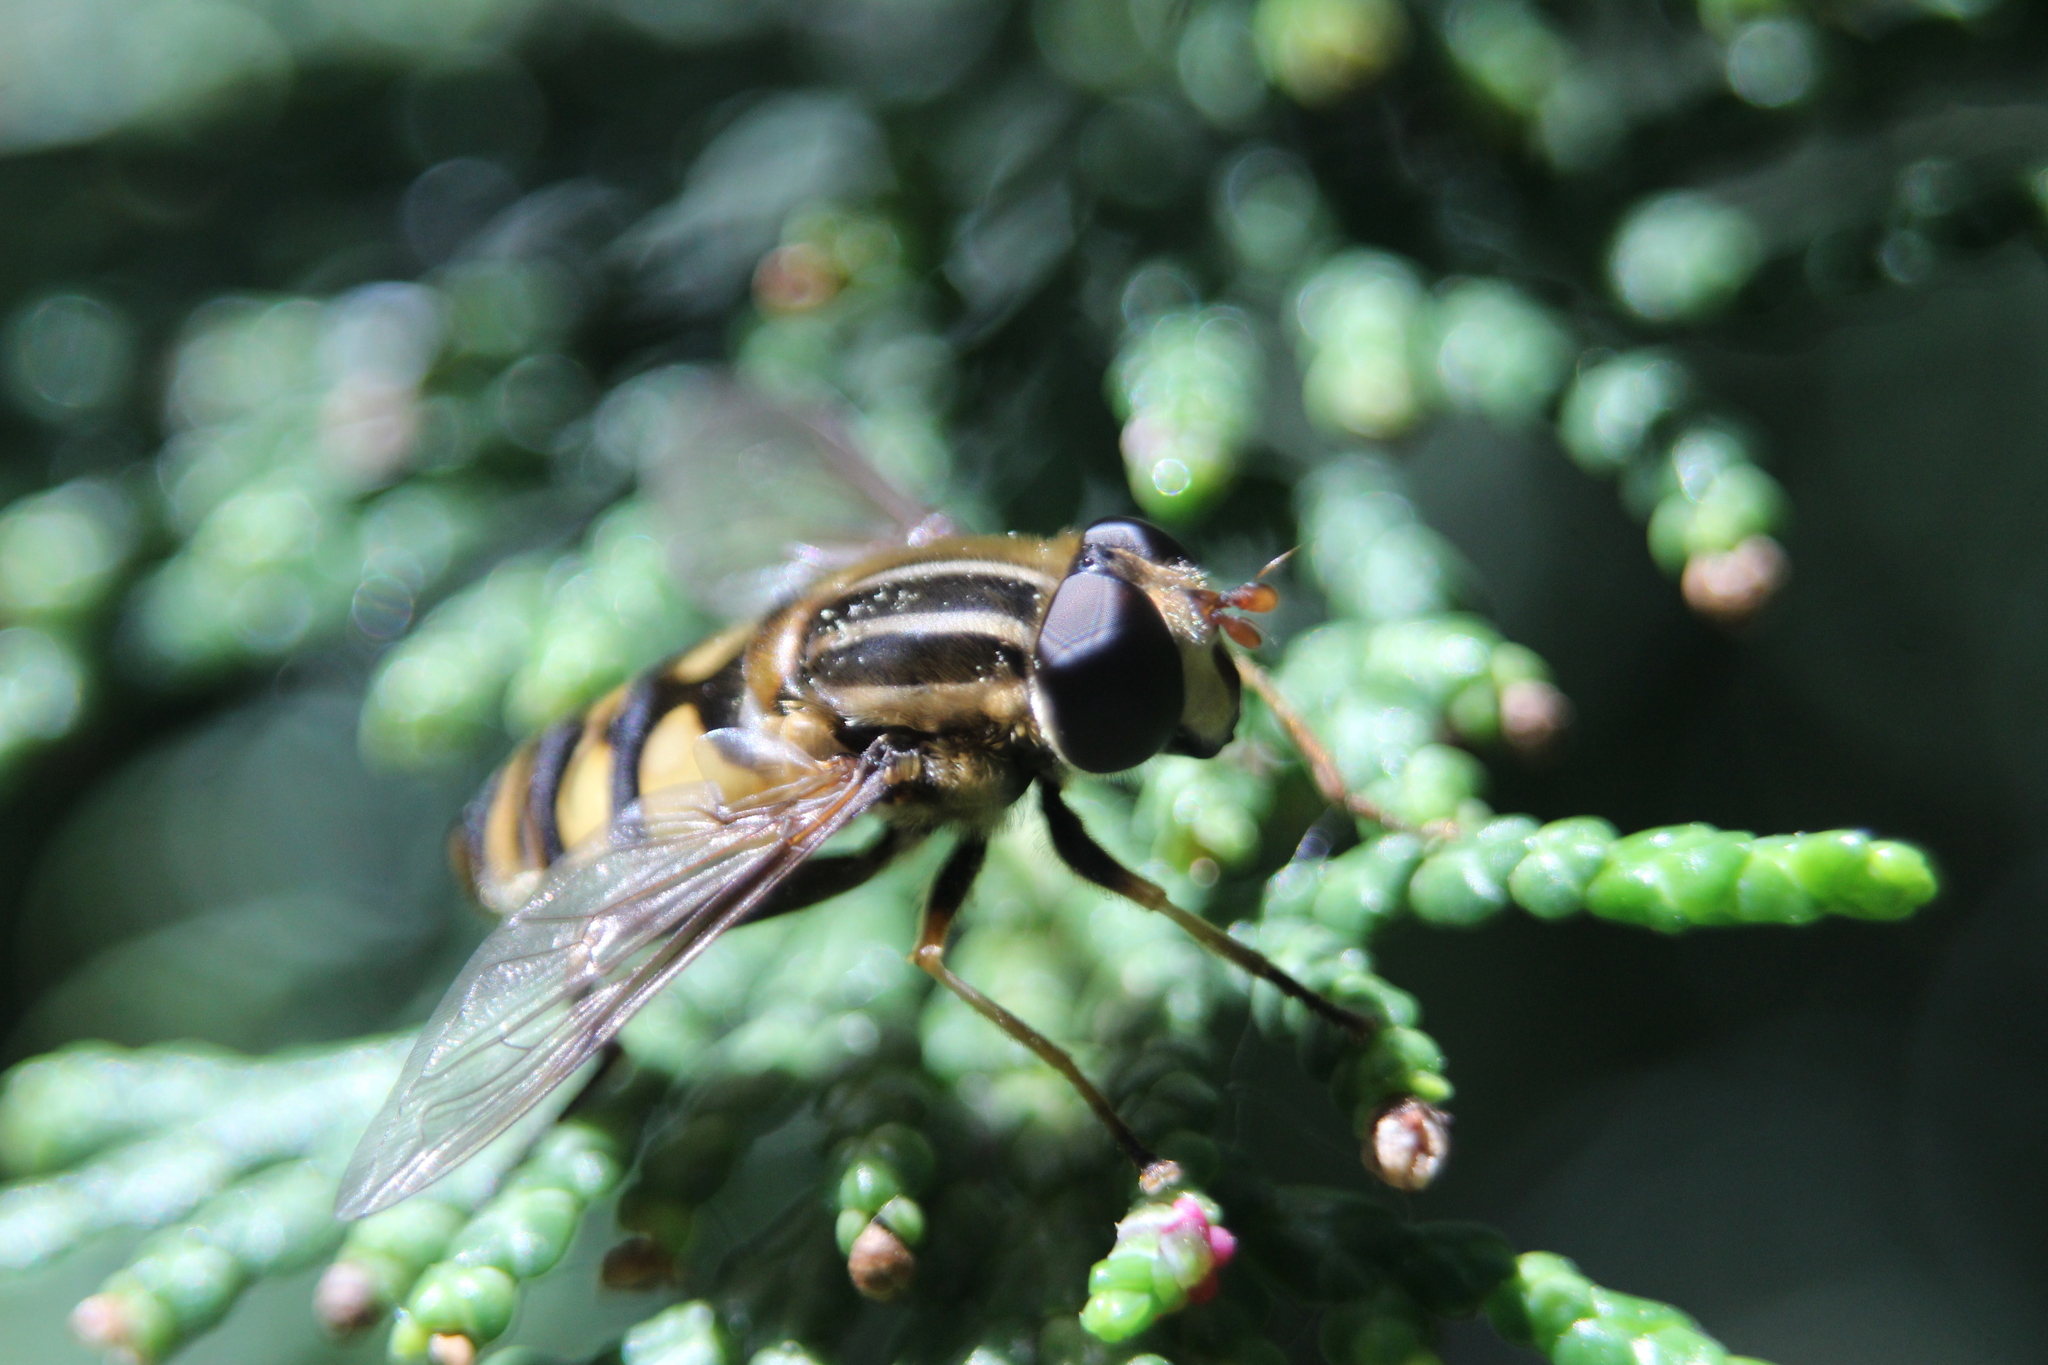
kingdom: Animalia
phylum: Arthropoda
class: Insecta
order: Diptera
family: Syrphidae
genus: Helophilus
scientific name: Helophilus fasciatus
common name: Narrow-headed marsh fly
